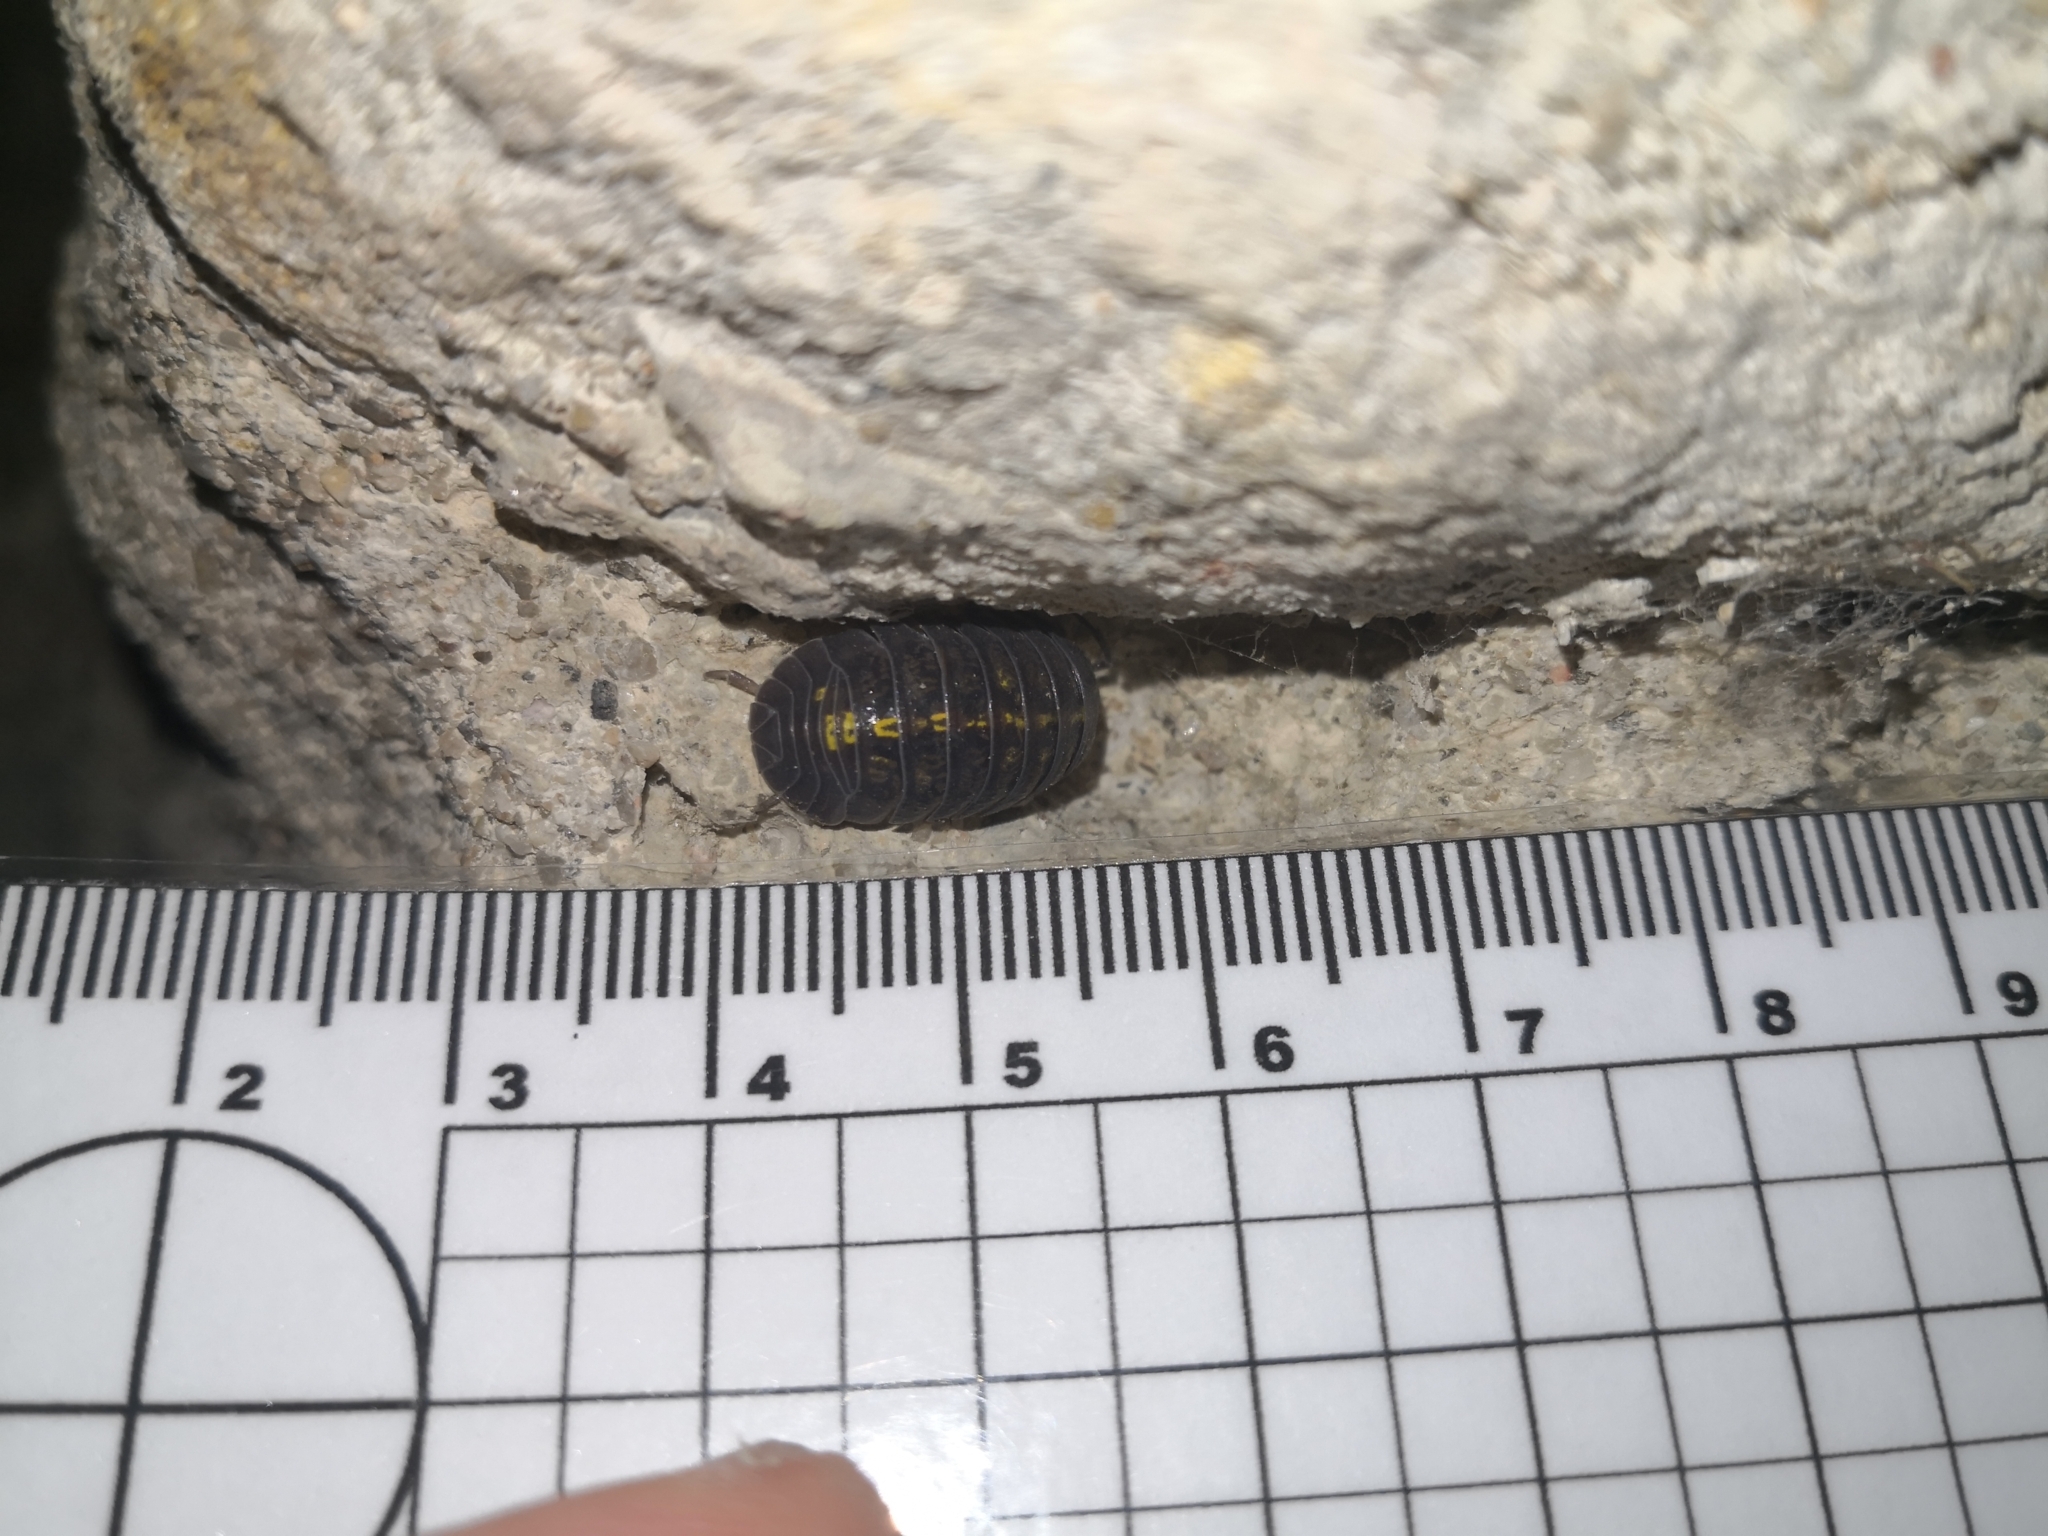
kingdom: Animalia
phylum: Arthropoda
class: Malacostraca
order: Isopoda
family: Armadillidiidae
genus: Armadillidium
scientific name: Armadillidium granulatum
